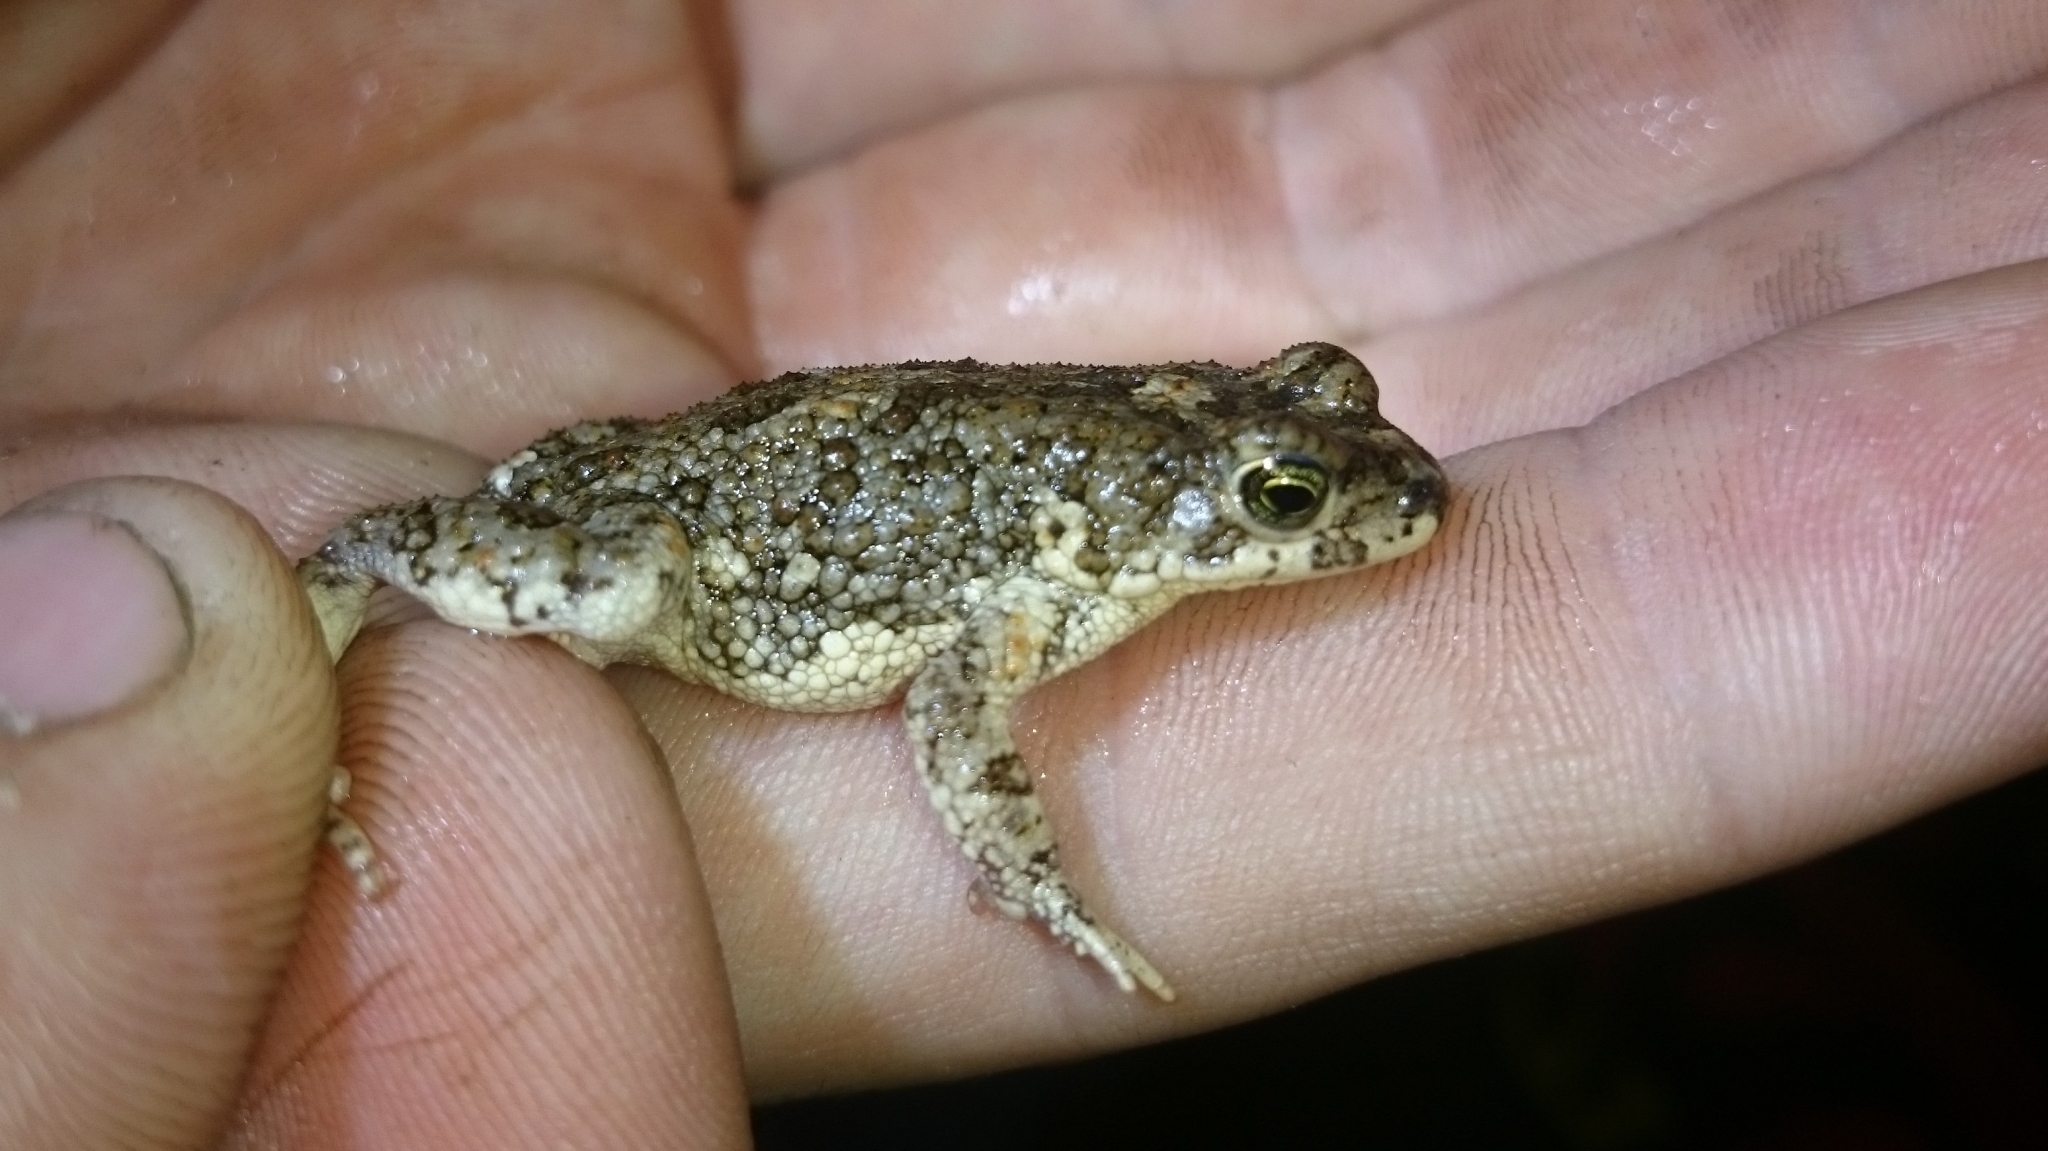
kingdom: Animalia
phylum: Chordata
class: Amphibia
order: Anura
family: Bufonidae
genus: Poyntonophrynus
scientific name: Poyntonophrynus fenoulheti
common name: Fenoulhet's toad
